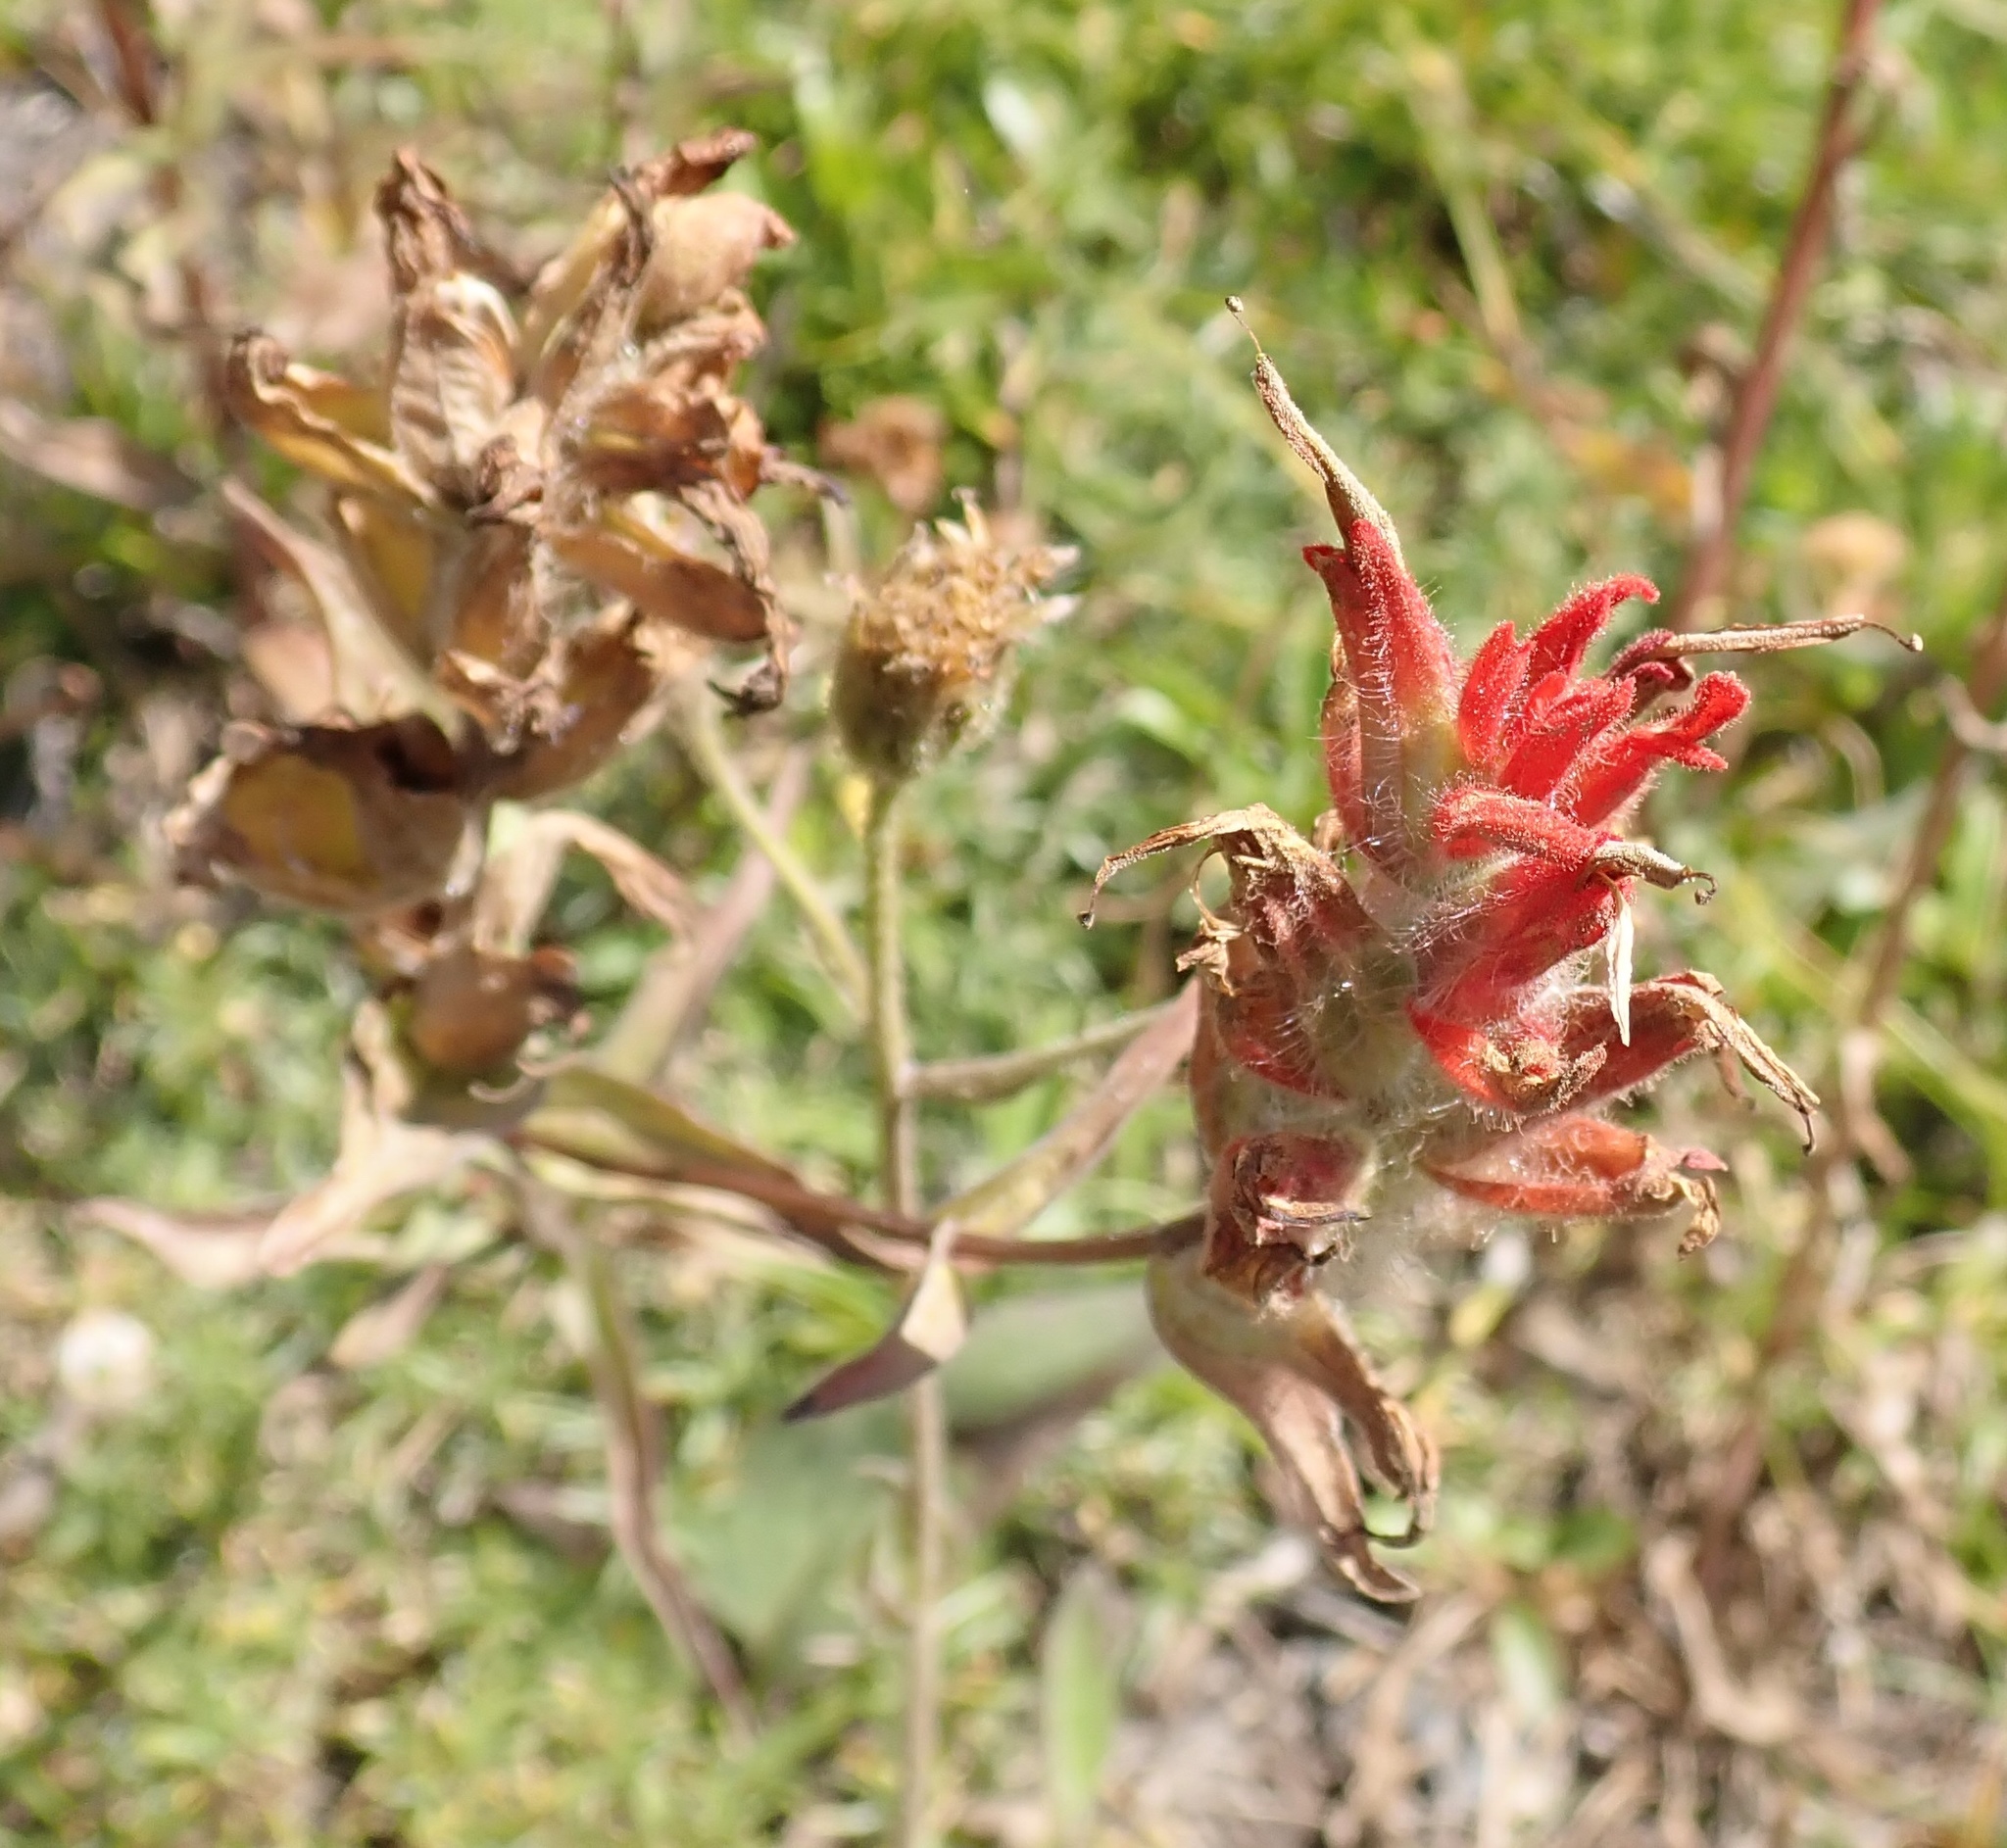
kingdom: Plantae
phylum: Tracheophyta
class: Magnoliopsida
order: Lamiales
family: Orobanchaceae
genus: Castilleja
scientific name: Castilleja miniata
